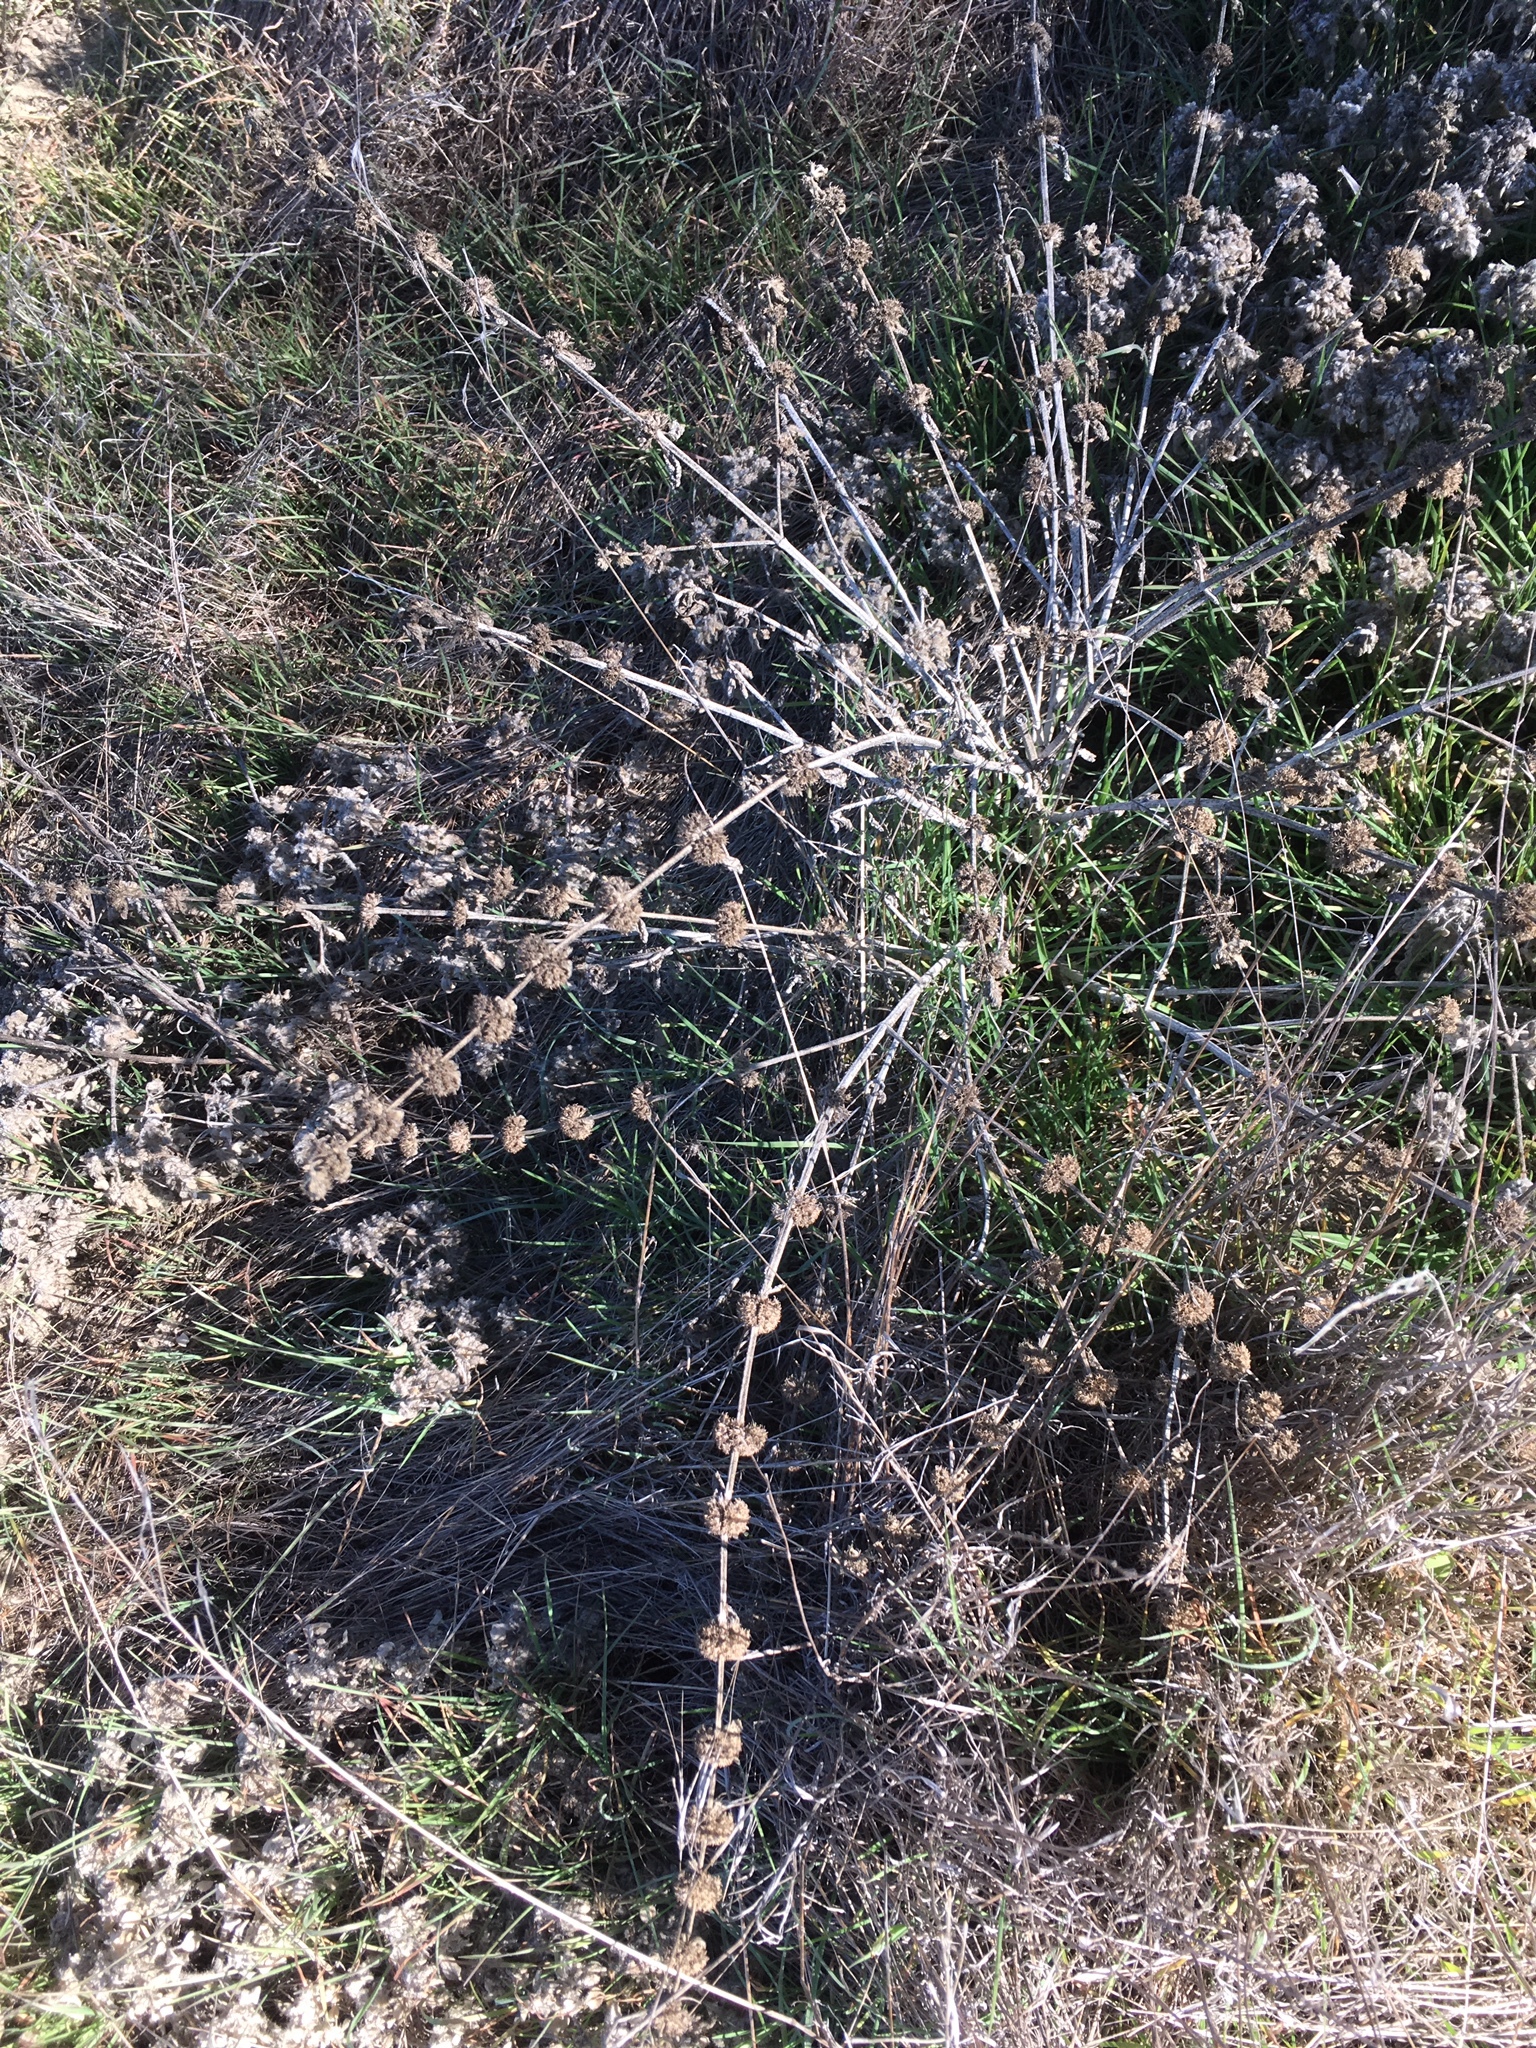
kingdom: Plantae
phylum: Tracheophyta
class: Magnoliopsida
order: Lamiales
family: Lamiaceae
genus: Marrubium
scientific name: Marrubium vulgare
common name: Horehound
